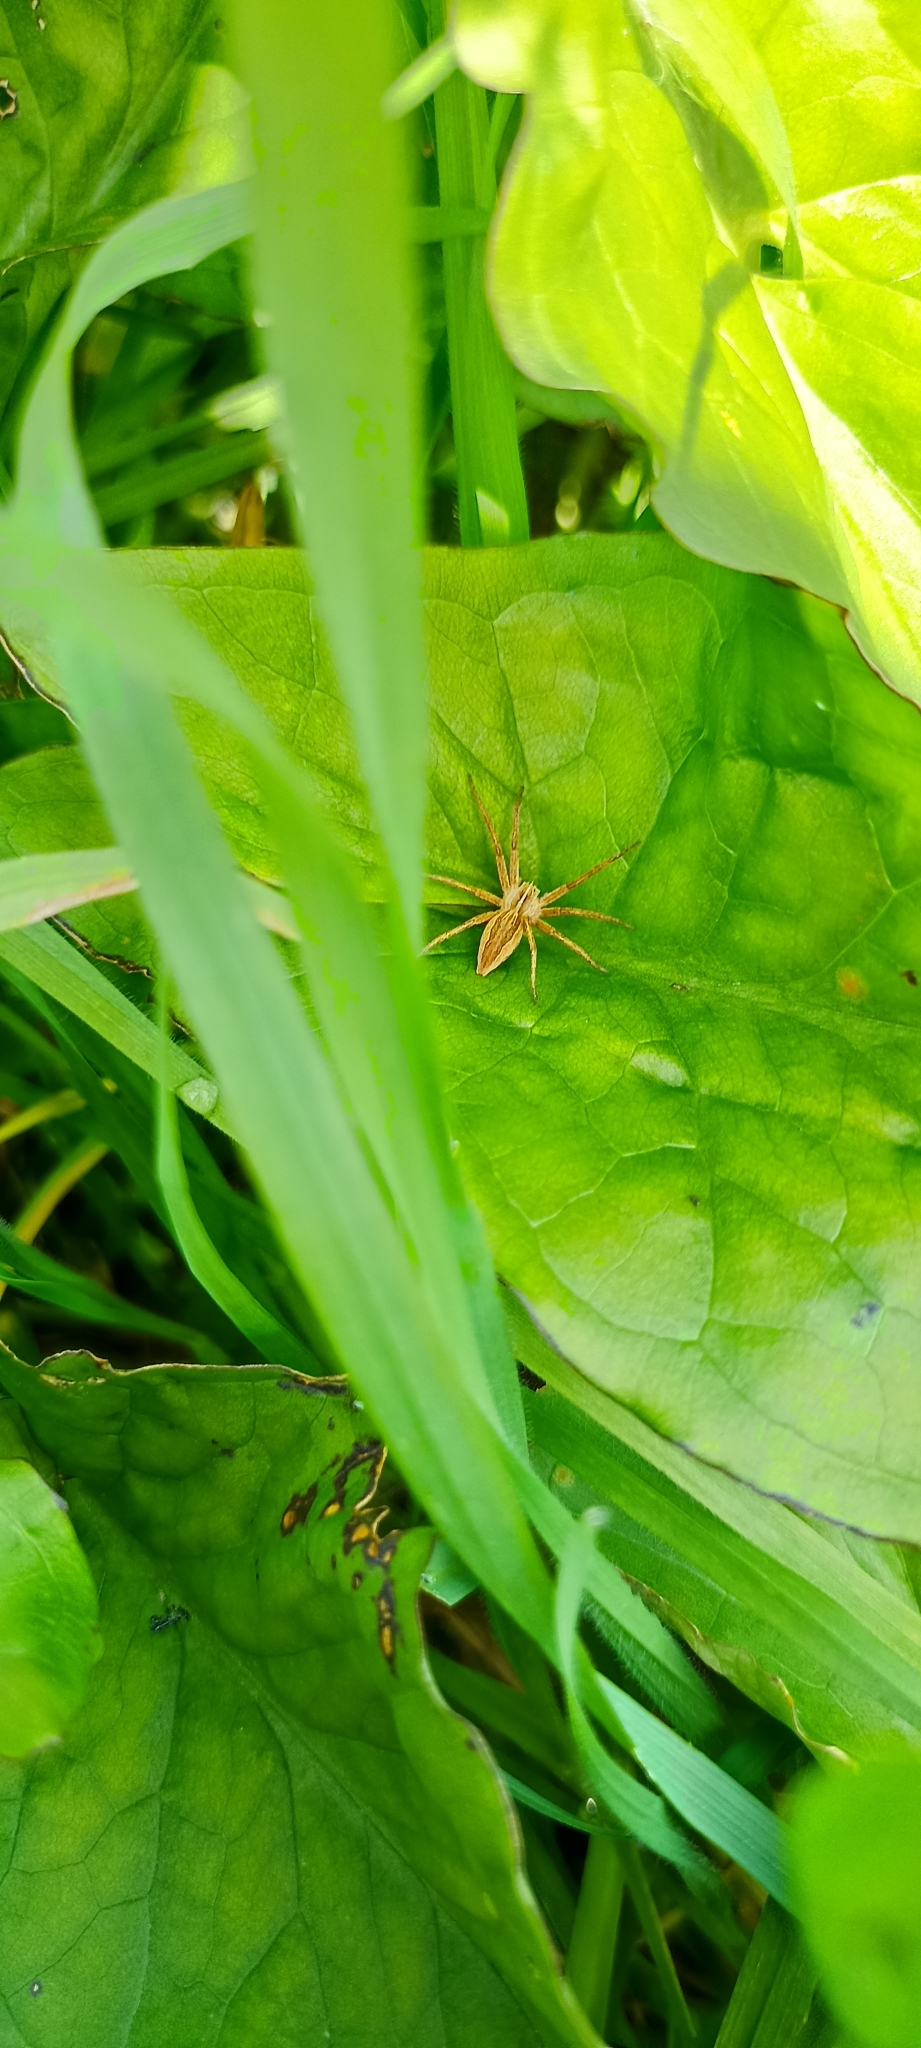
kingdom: Animalia
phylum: Arthropoda
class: Arachnida
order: Araneae
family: Pisauridae
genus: Pisaura
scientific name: Pisaura mirabilis
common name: Tent spider
